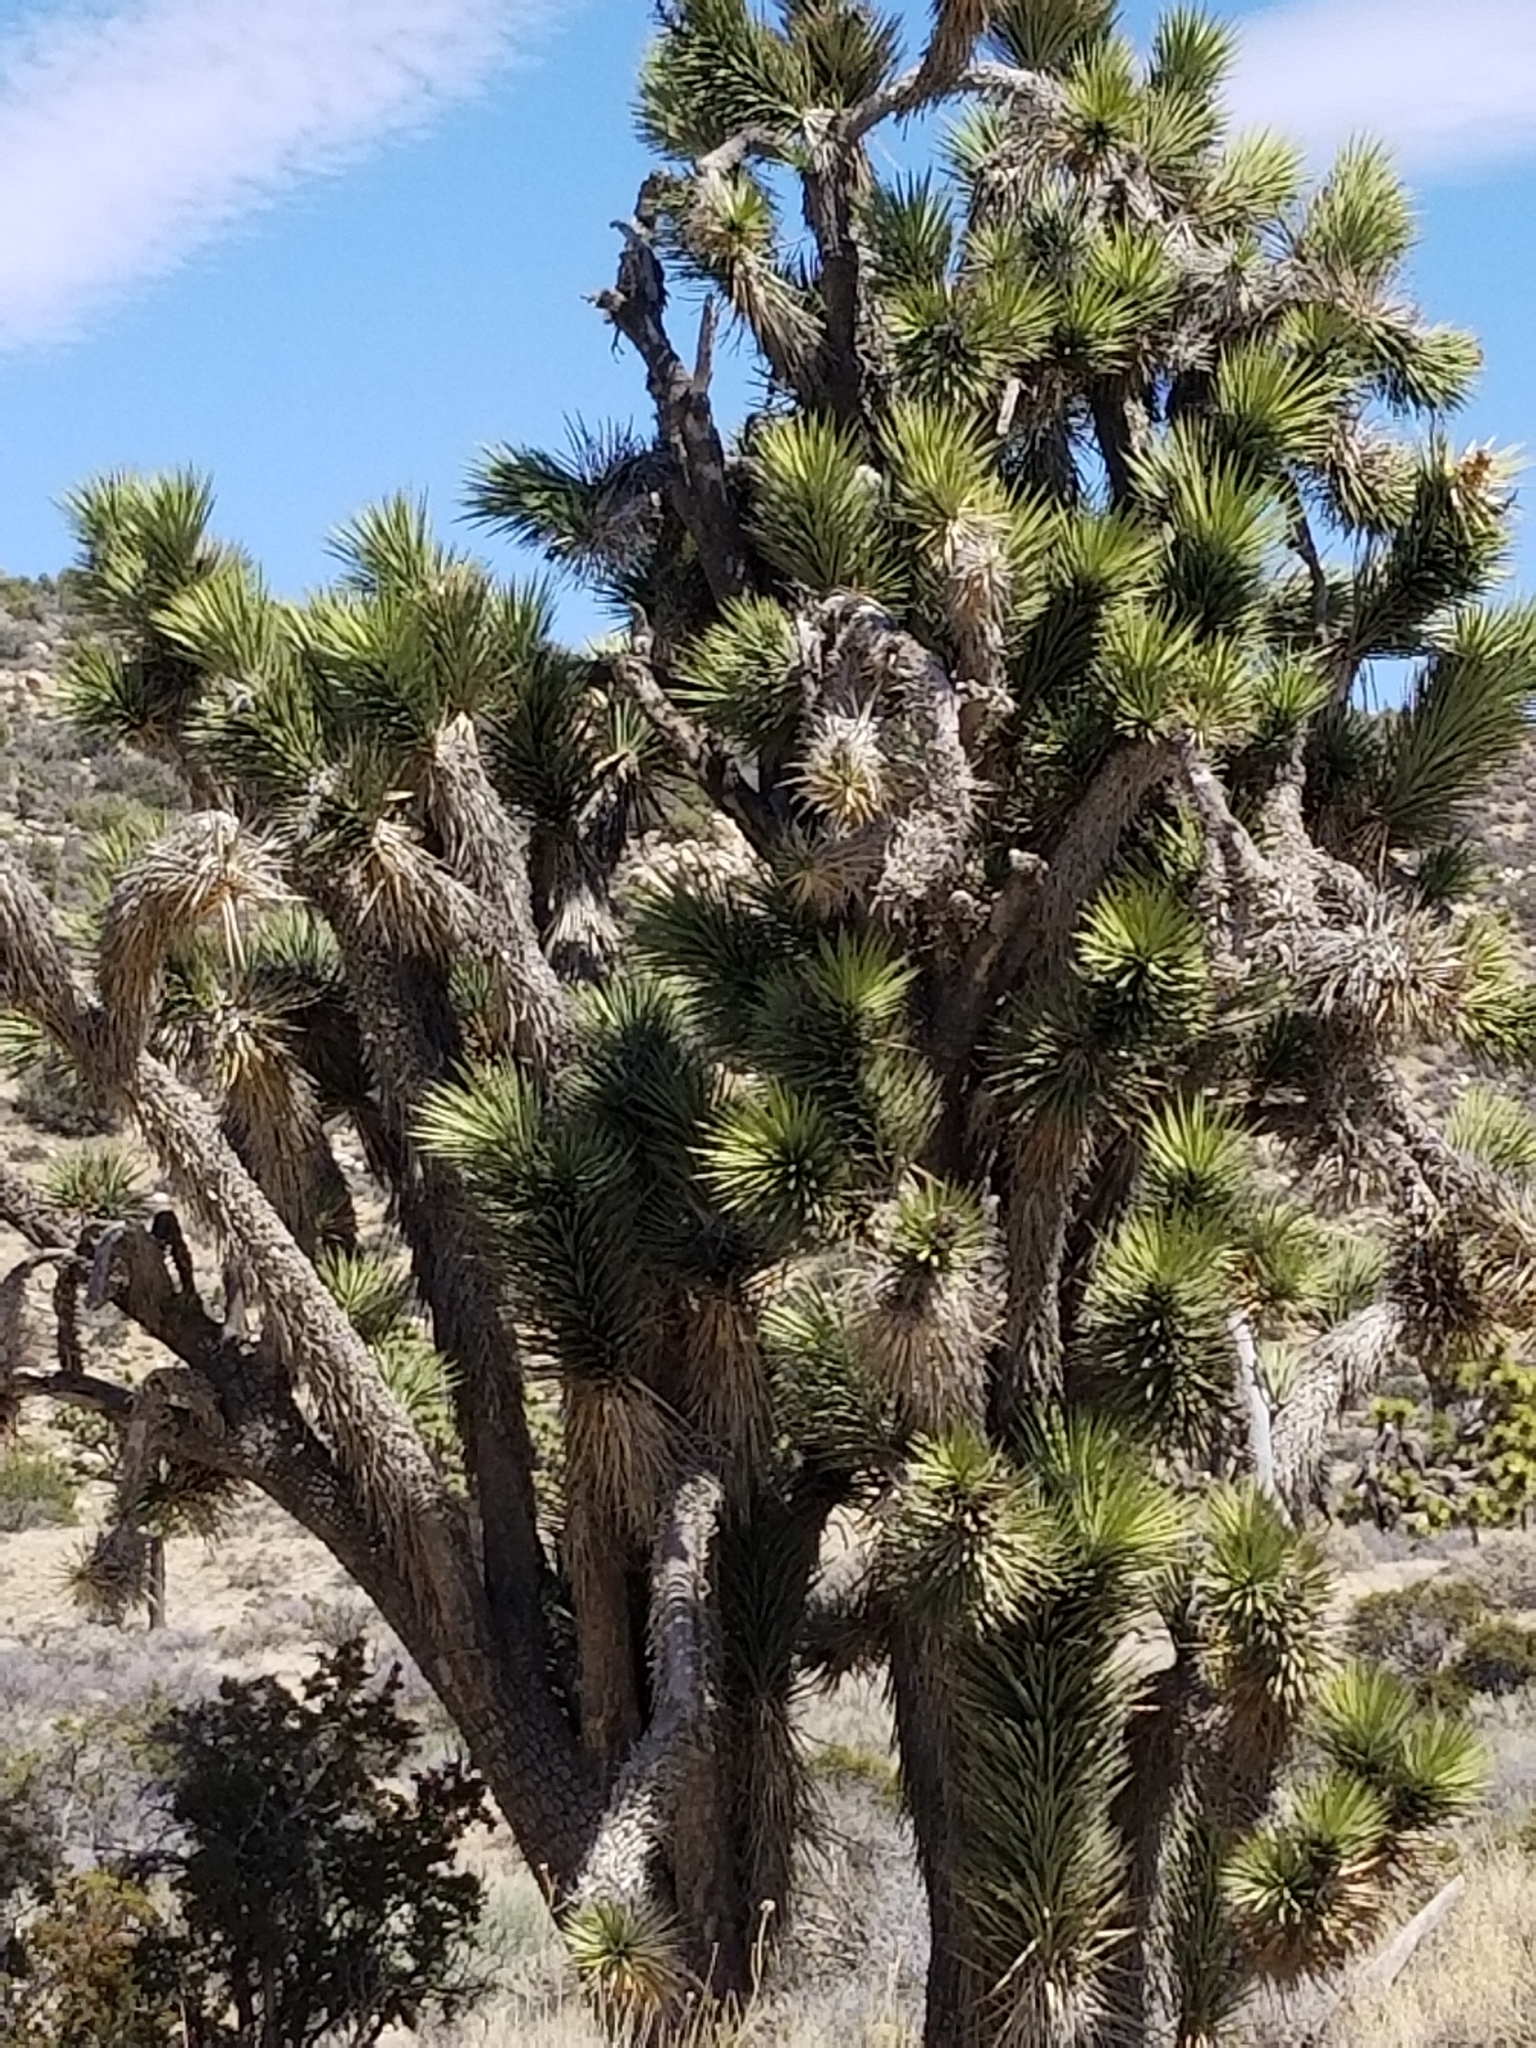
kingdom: Plantae
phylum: Tracheophyta
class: Liliopsida
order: Asparagales
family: Asparagaceae
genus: Yucca
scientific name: Yucca brevifolia
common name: Joshua tree
